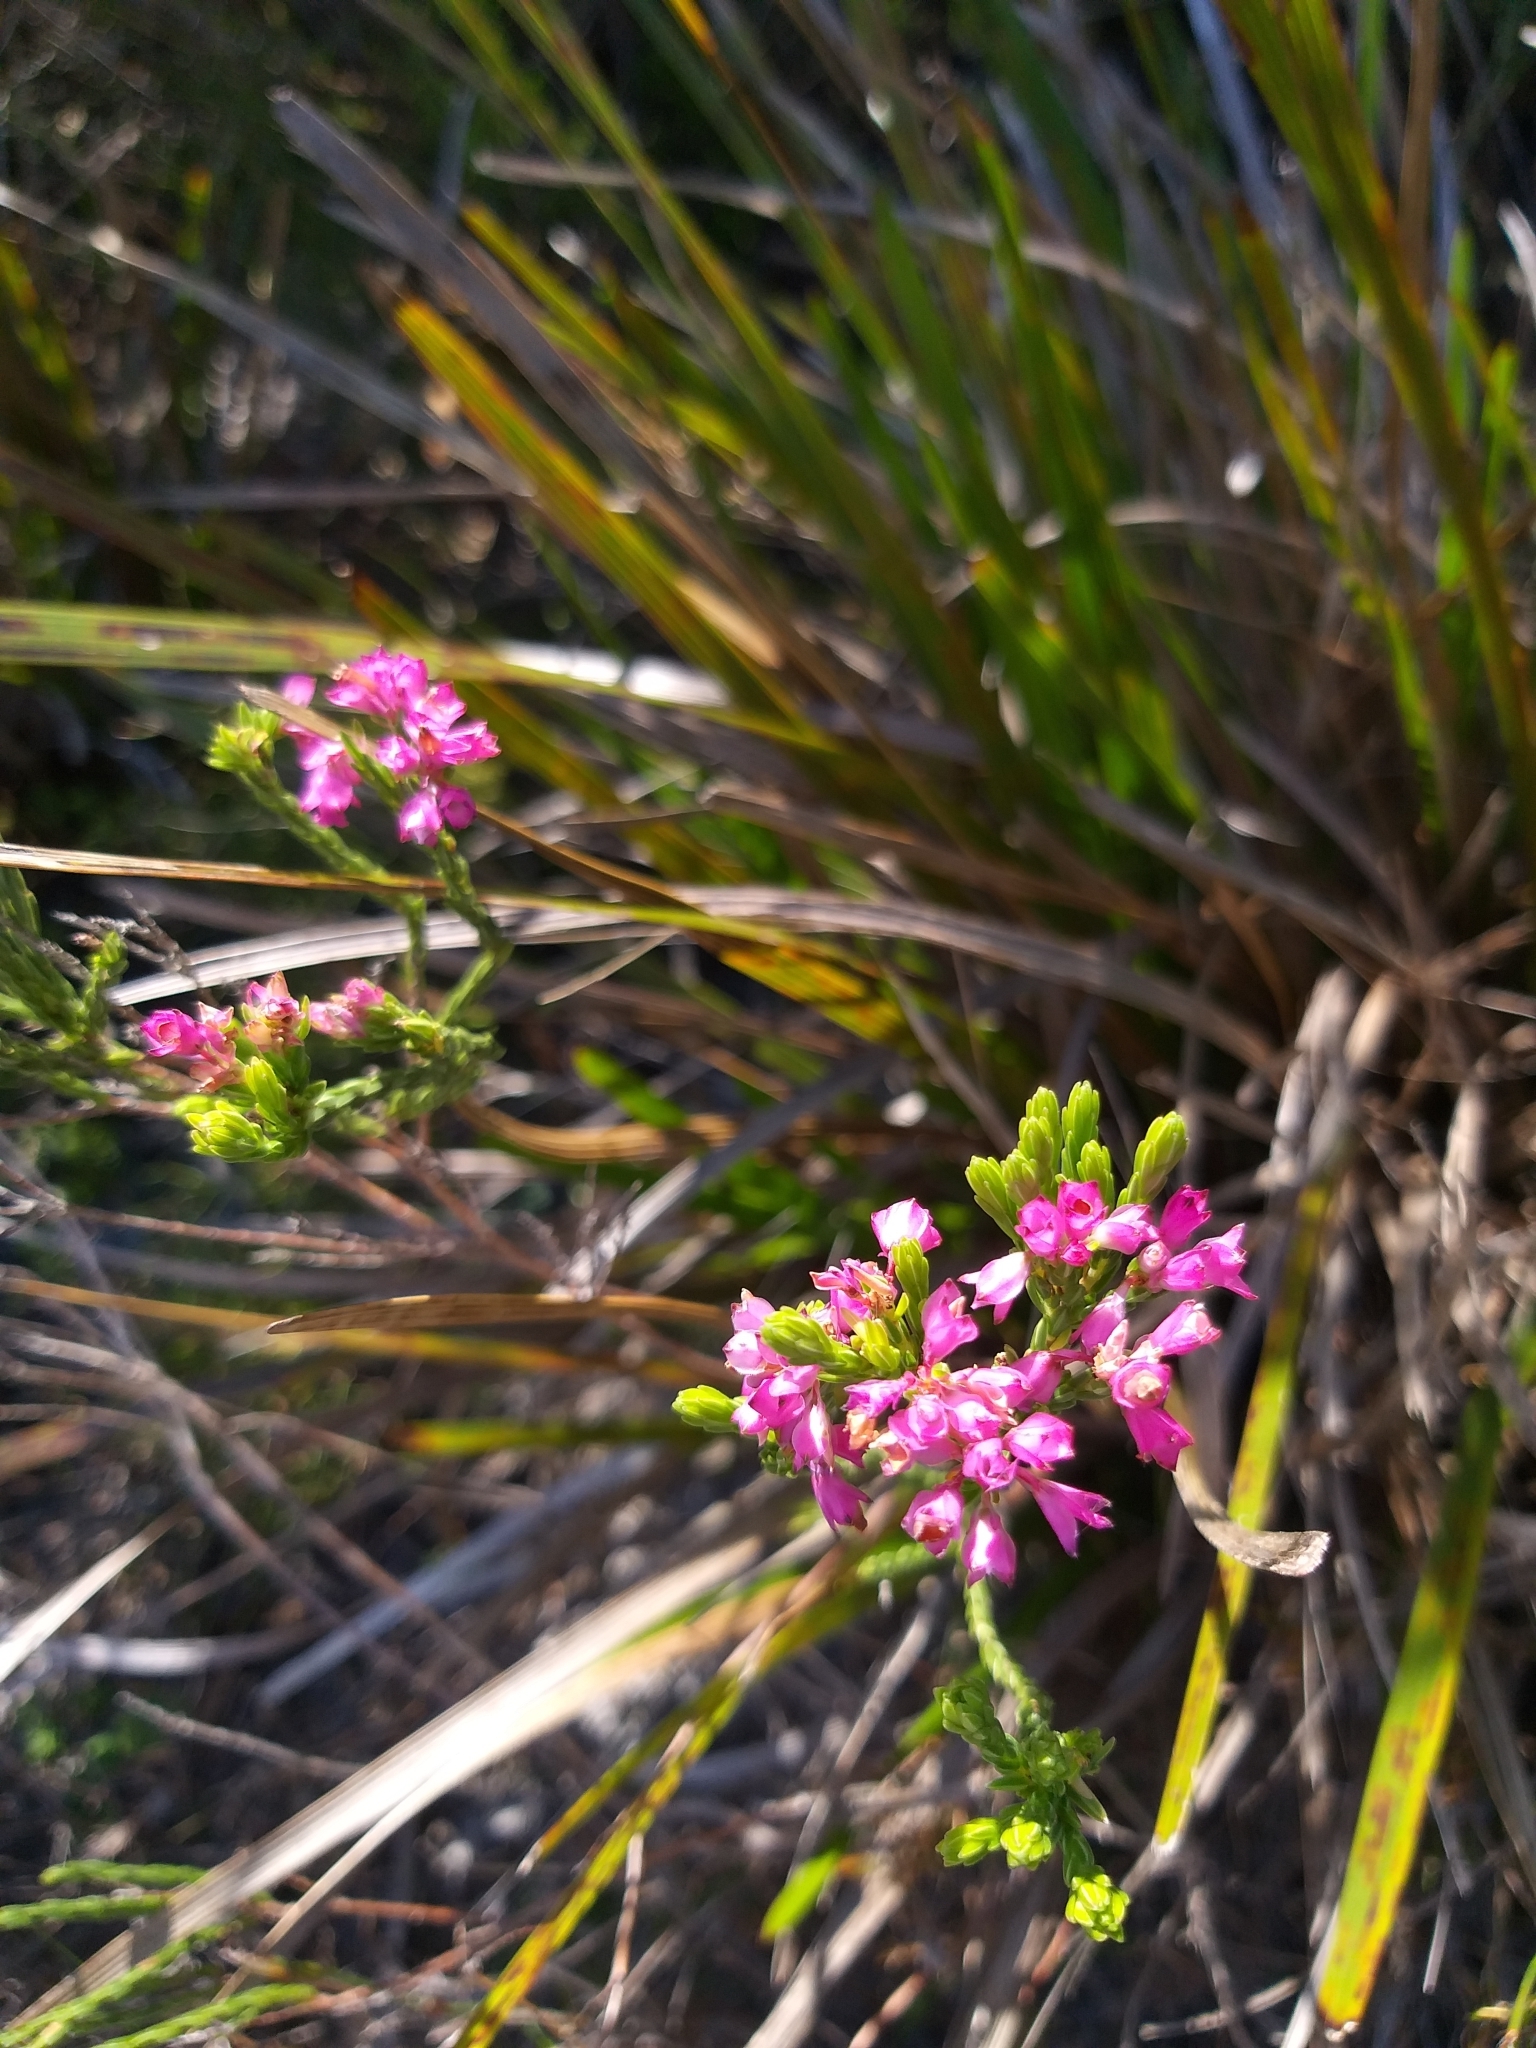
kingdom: Plantae
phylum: Tracheophyta
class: Magnoliopsida
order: Ericales
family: Ericaceae
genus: Erica
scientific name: Erica corifolia
